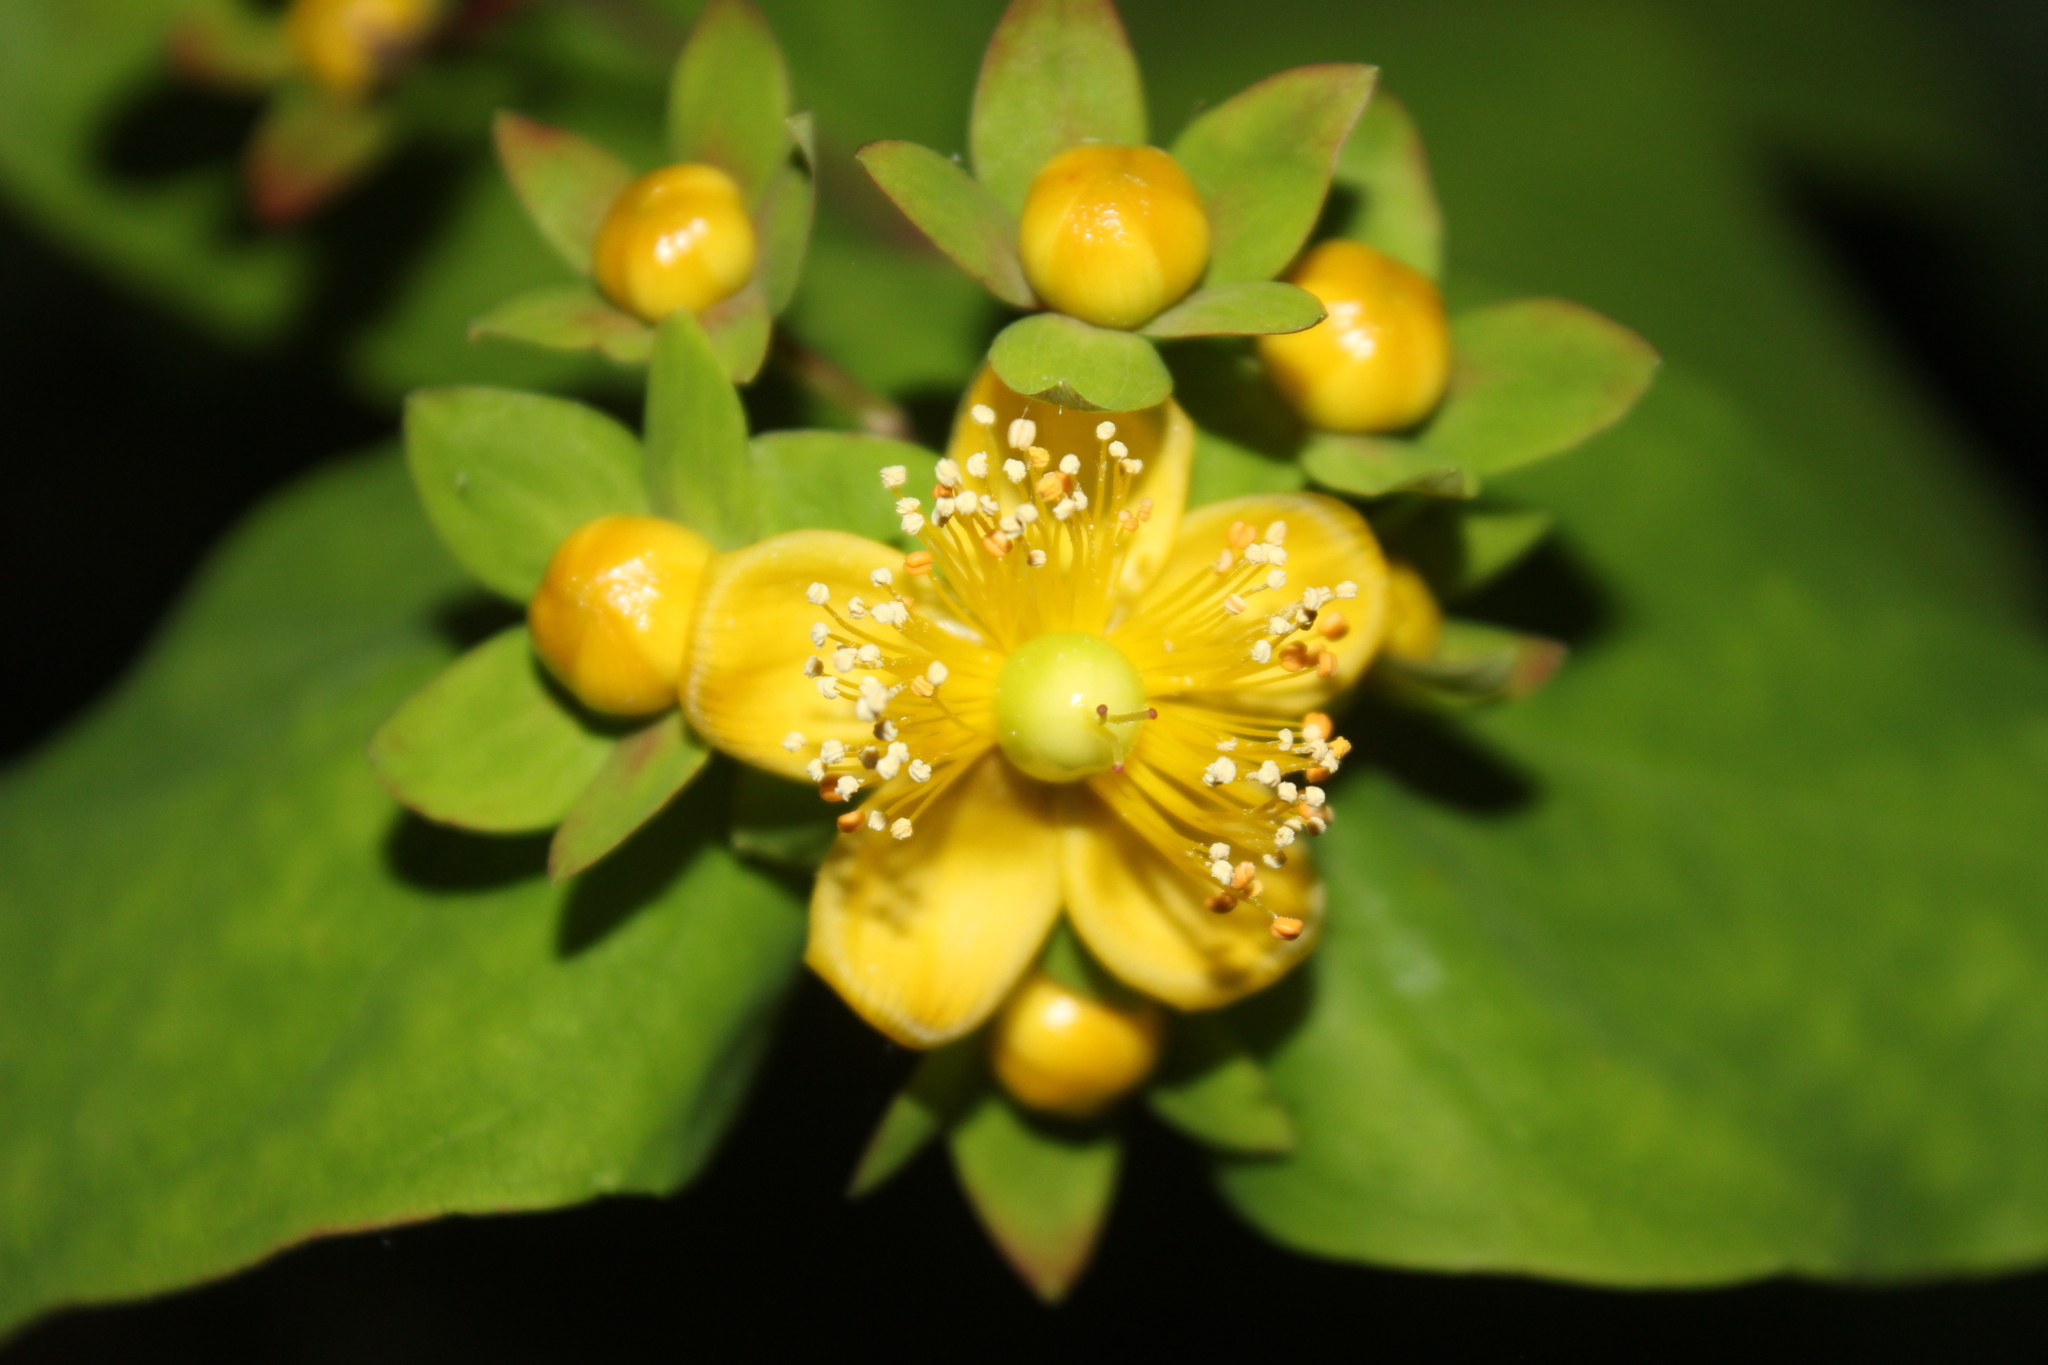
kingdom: Plantae
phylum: Tracheophyta
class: Magnoliopsida
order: Malpighiales
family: Hypericaceae
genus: Hypericum
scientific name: Hypericum androsaemum
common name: Sweet-amber
